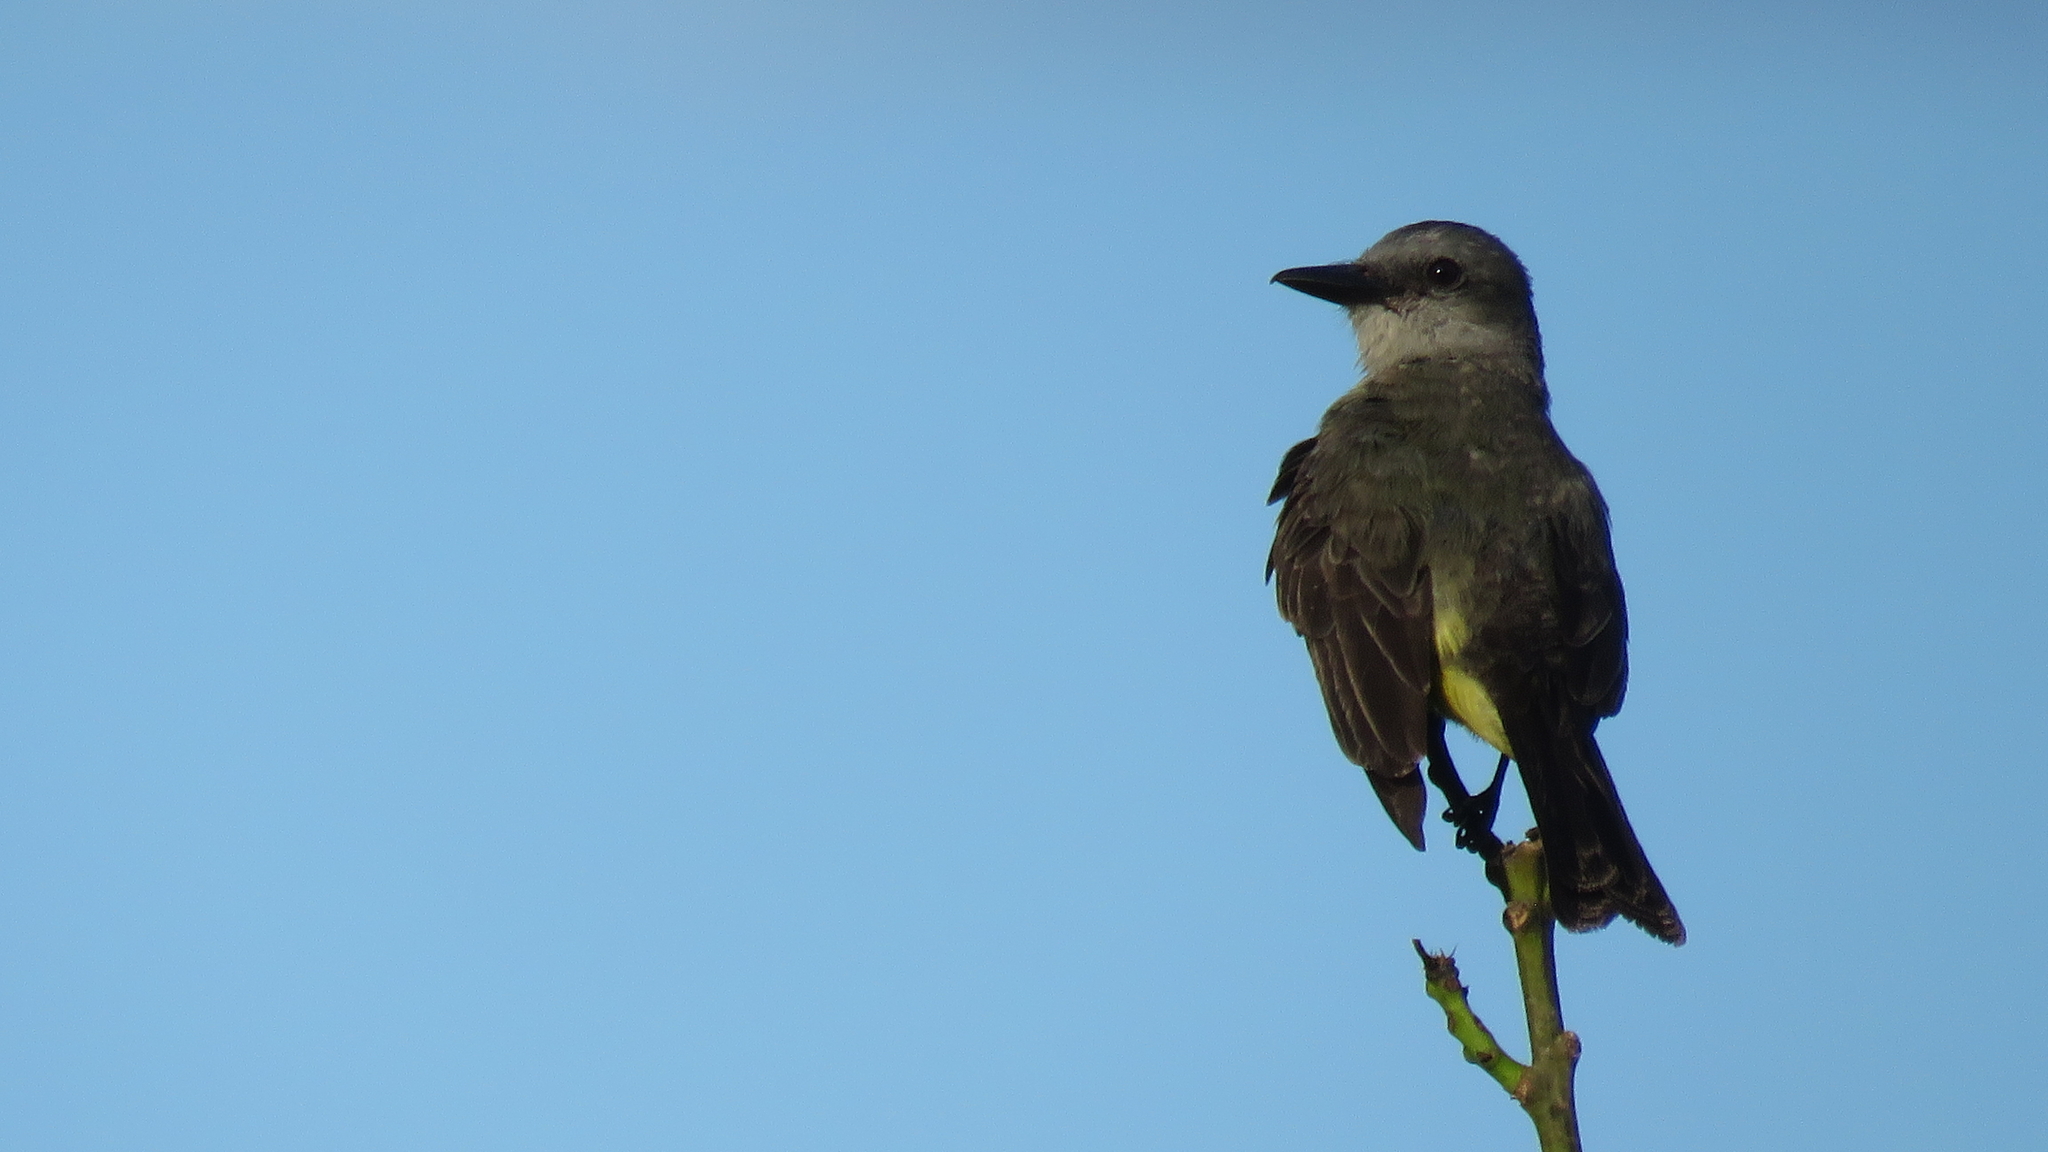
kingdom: Animalia
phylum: Chordata
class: Aves
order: Passeriformes
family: Tyrannidae
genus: Tyrannus
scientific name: Tyrannus melancholicus
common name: Tropical kingbird
